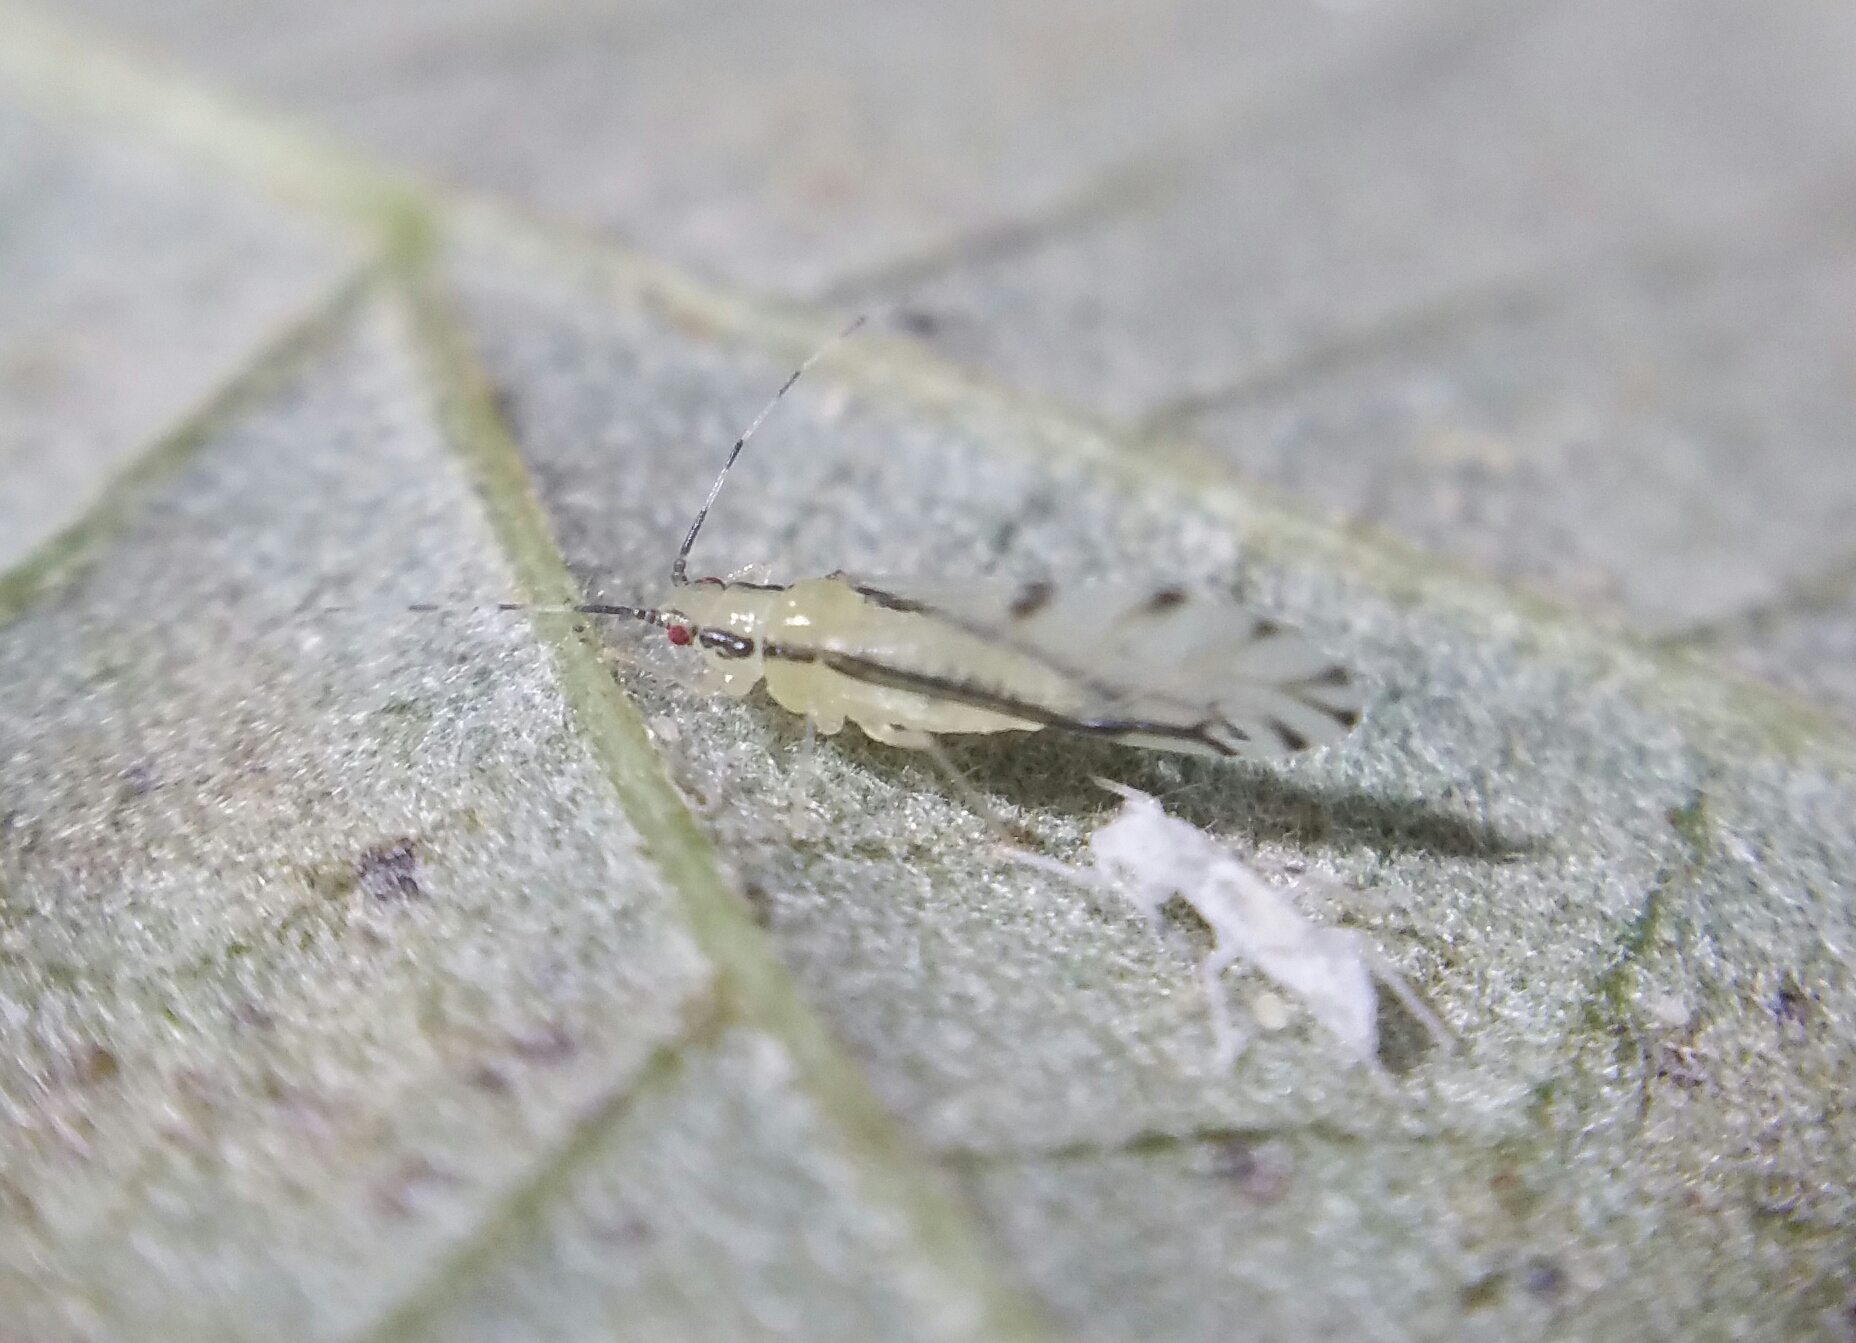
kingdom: Animalia
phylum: Arthropoda
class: Insecta
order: Hemiptera
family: Aphididae
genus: Eucallipterus
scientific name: Eucallipterus tiliae
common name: Aphid
